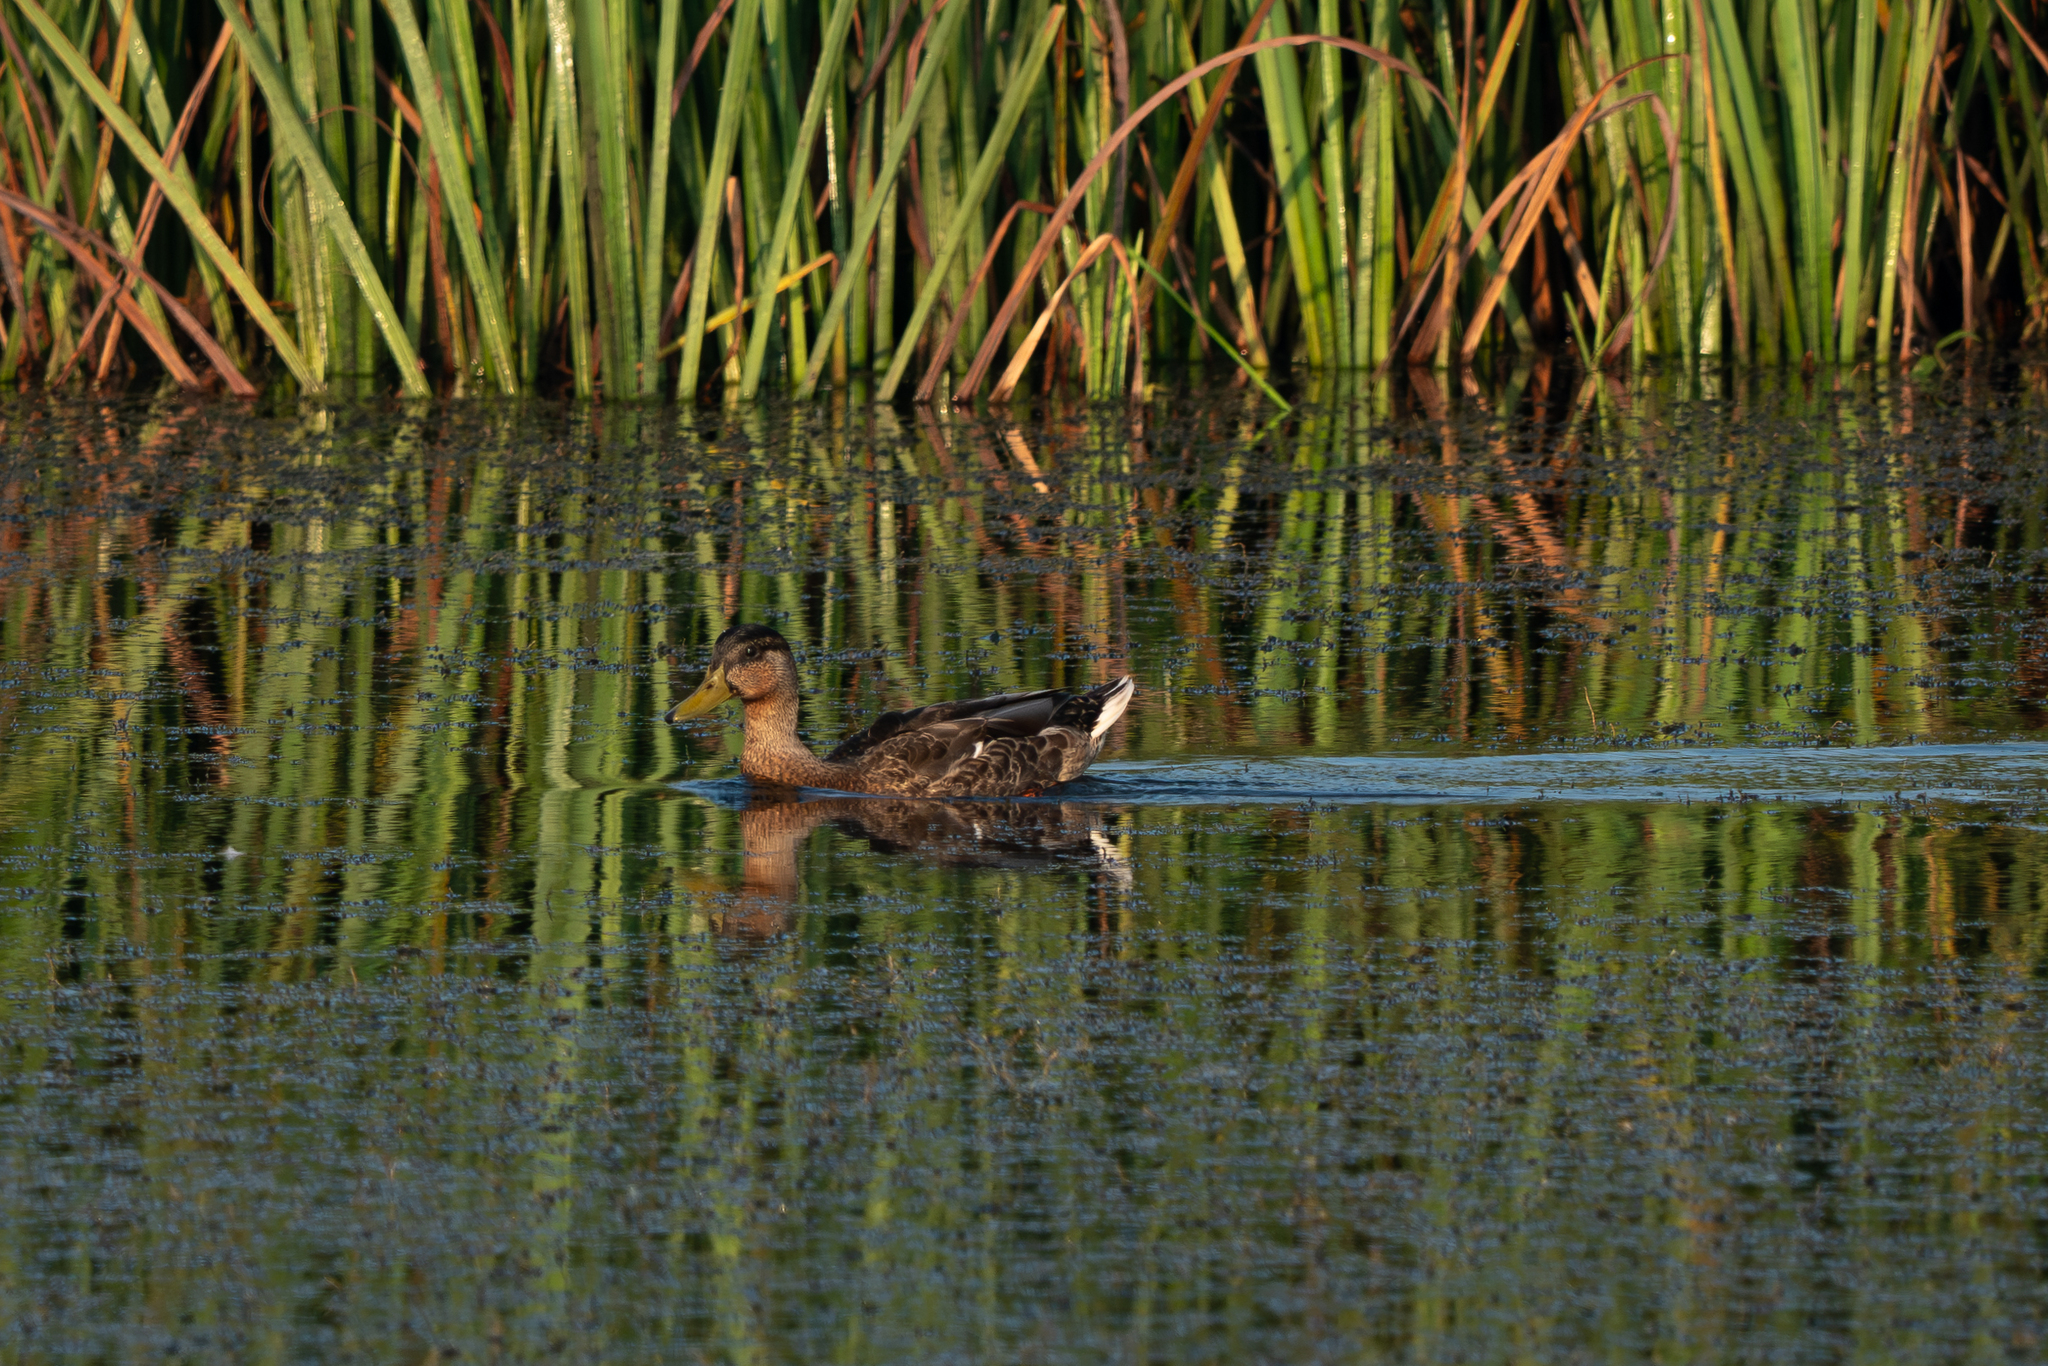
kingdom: Animalia
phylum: Chordata
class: Aves
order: Anseriformes
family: Anatidae
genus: Anas
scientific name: Anas platyrhynchos
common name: Mallard
